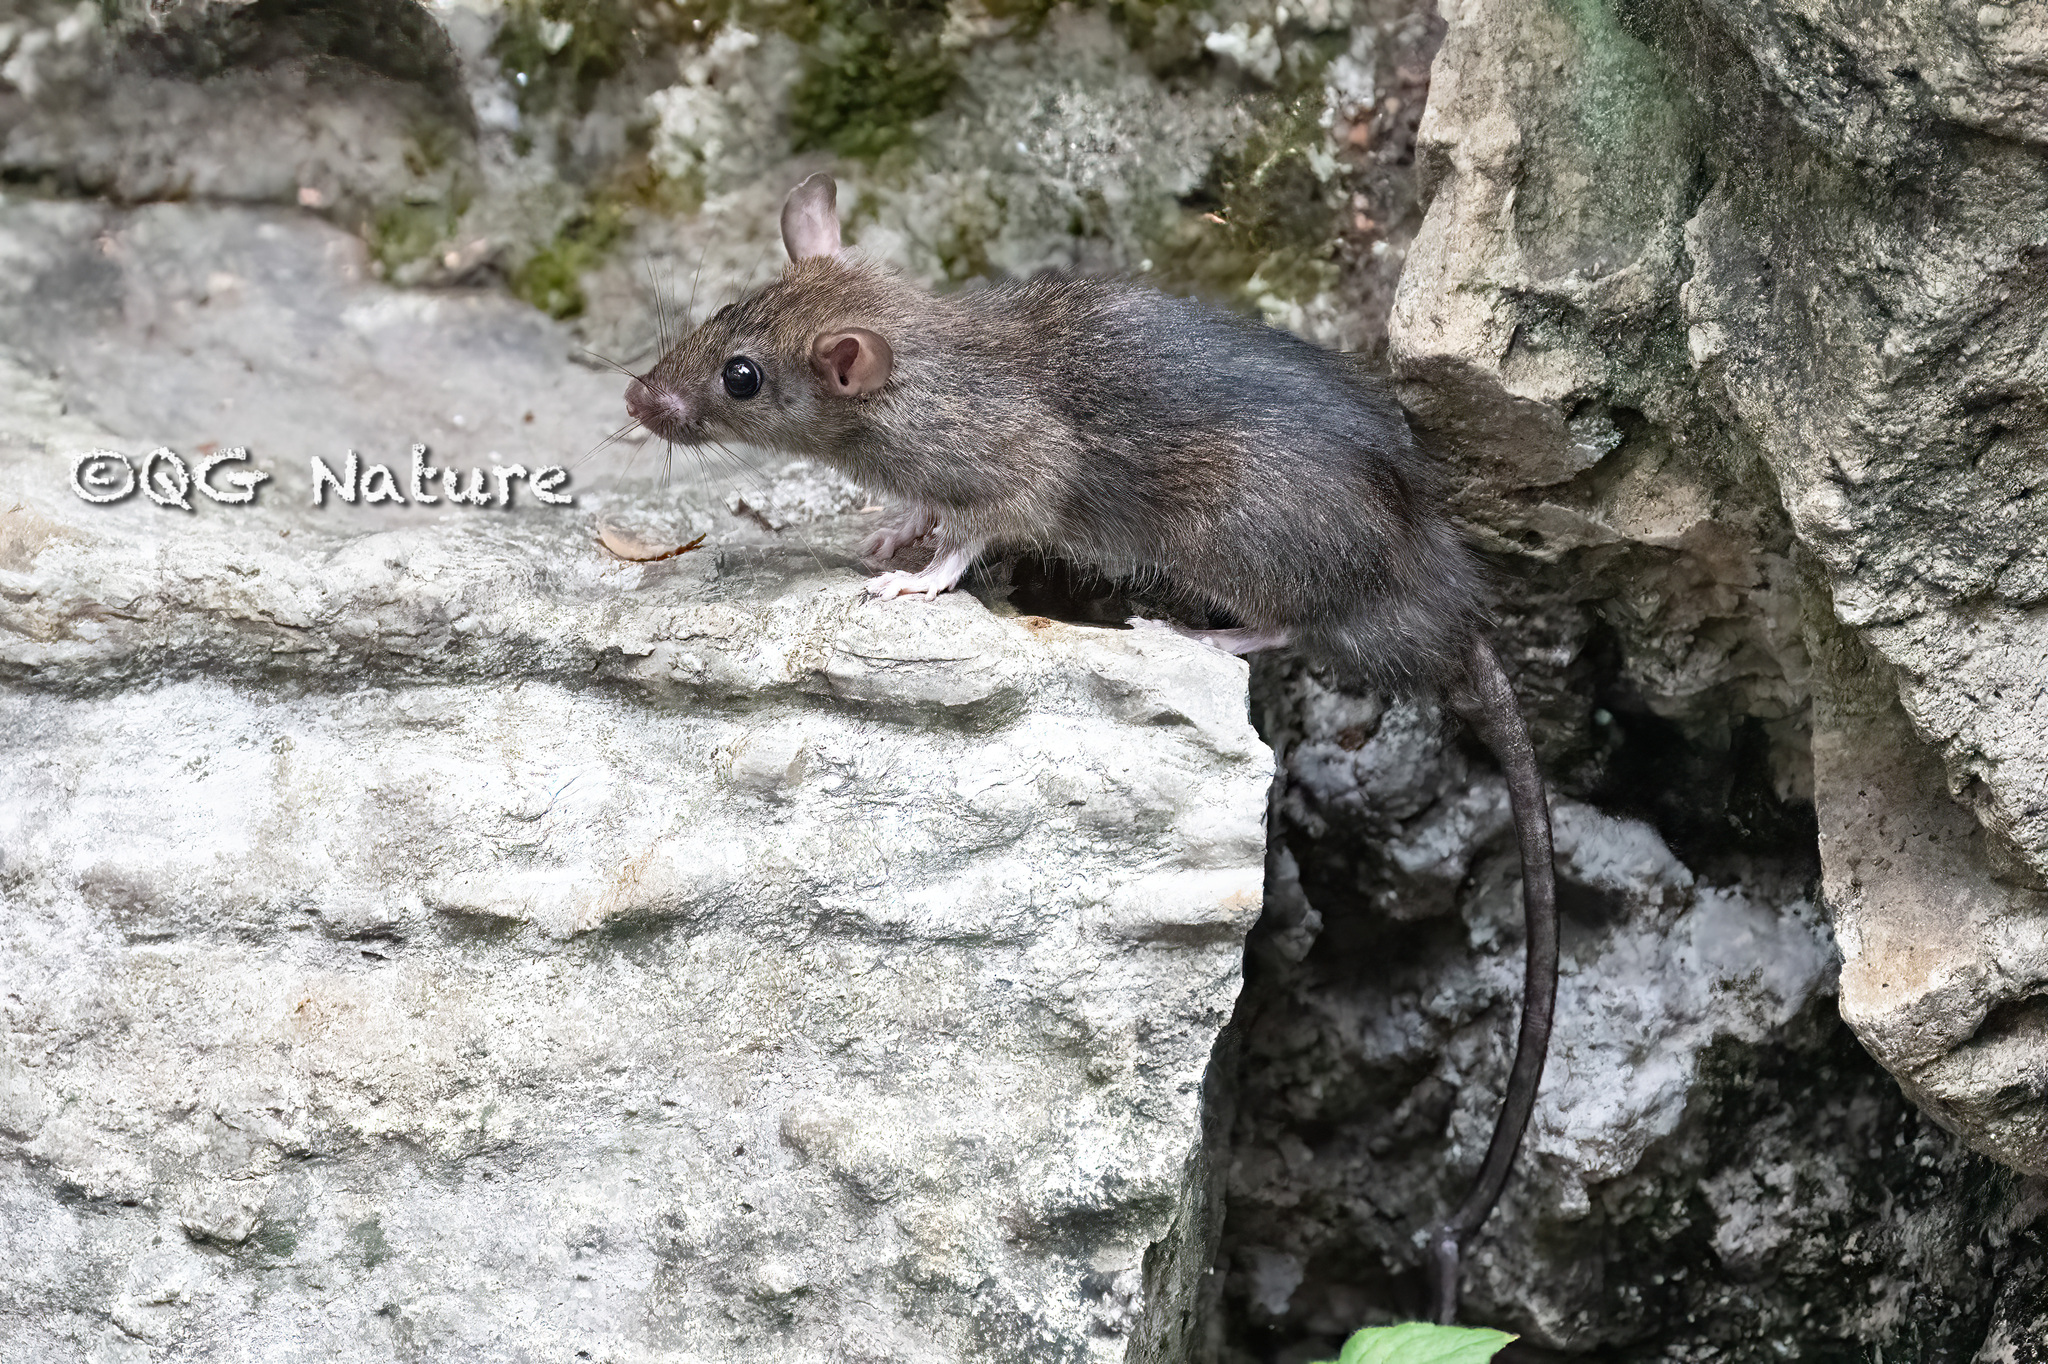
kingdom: Animalia
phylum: Chordata
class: Mammalia
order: Rodentia
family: Muridae
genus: Rattus
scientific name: Rattus rattus
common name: Black rat
